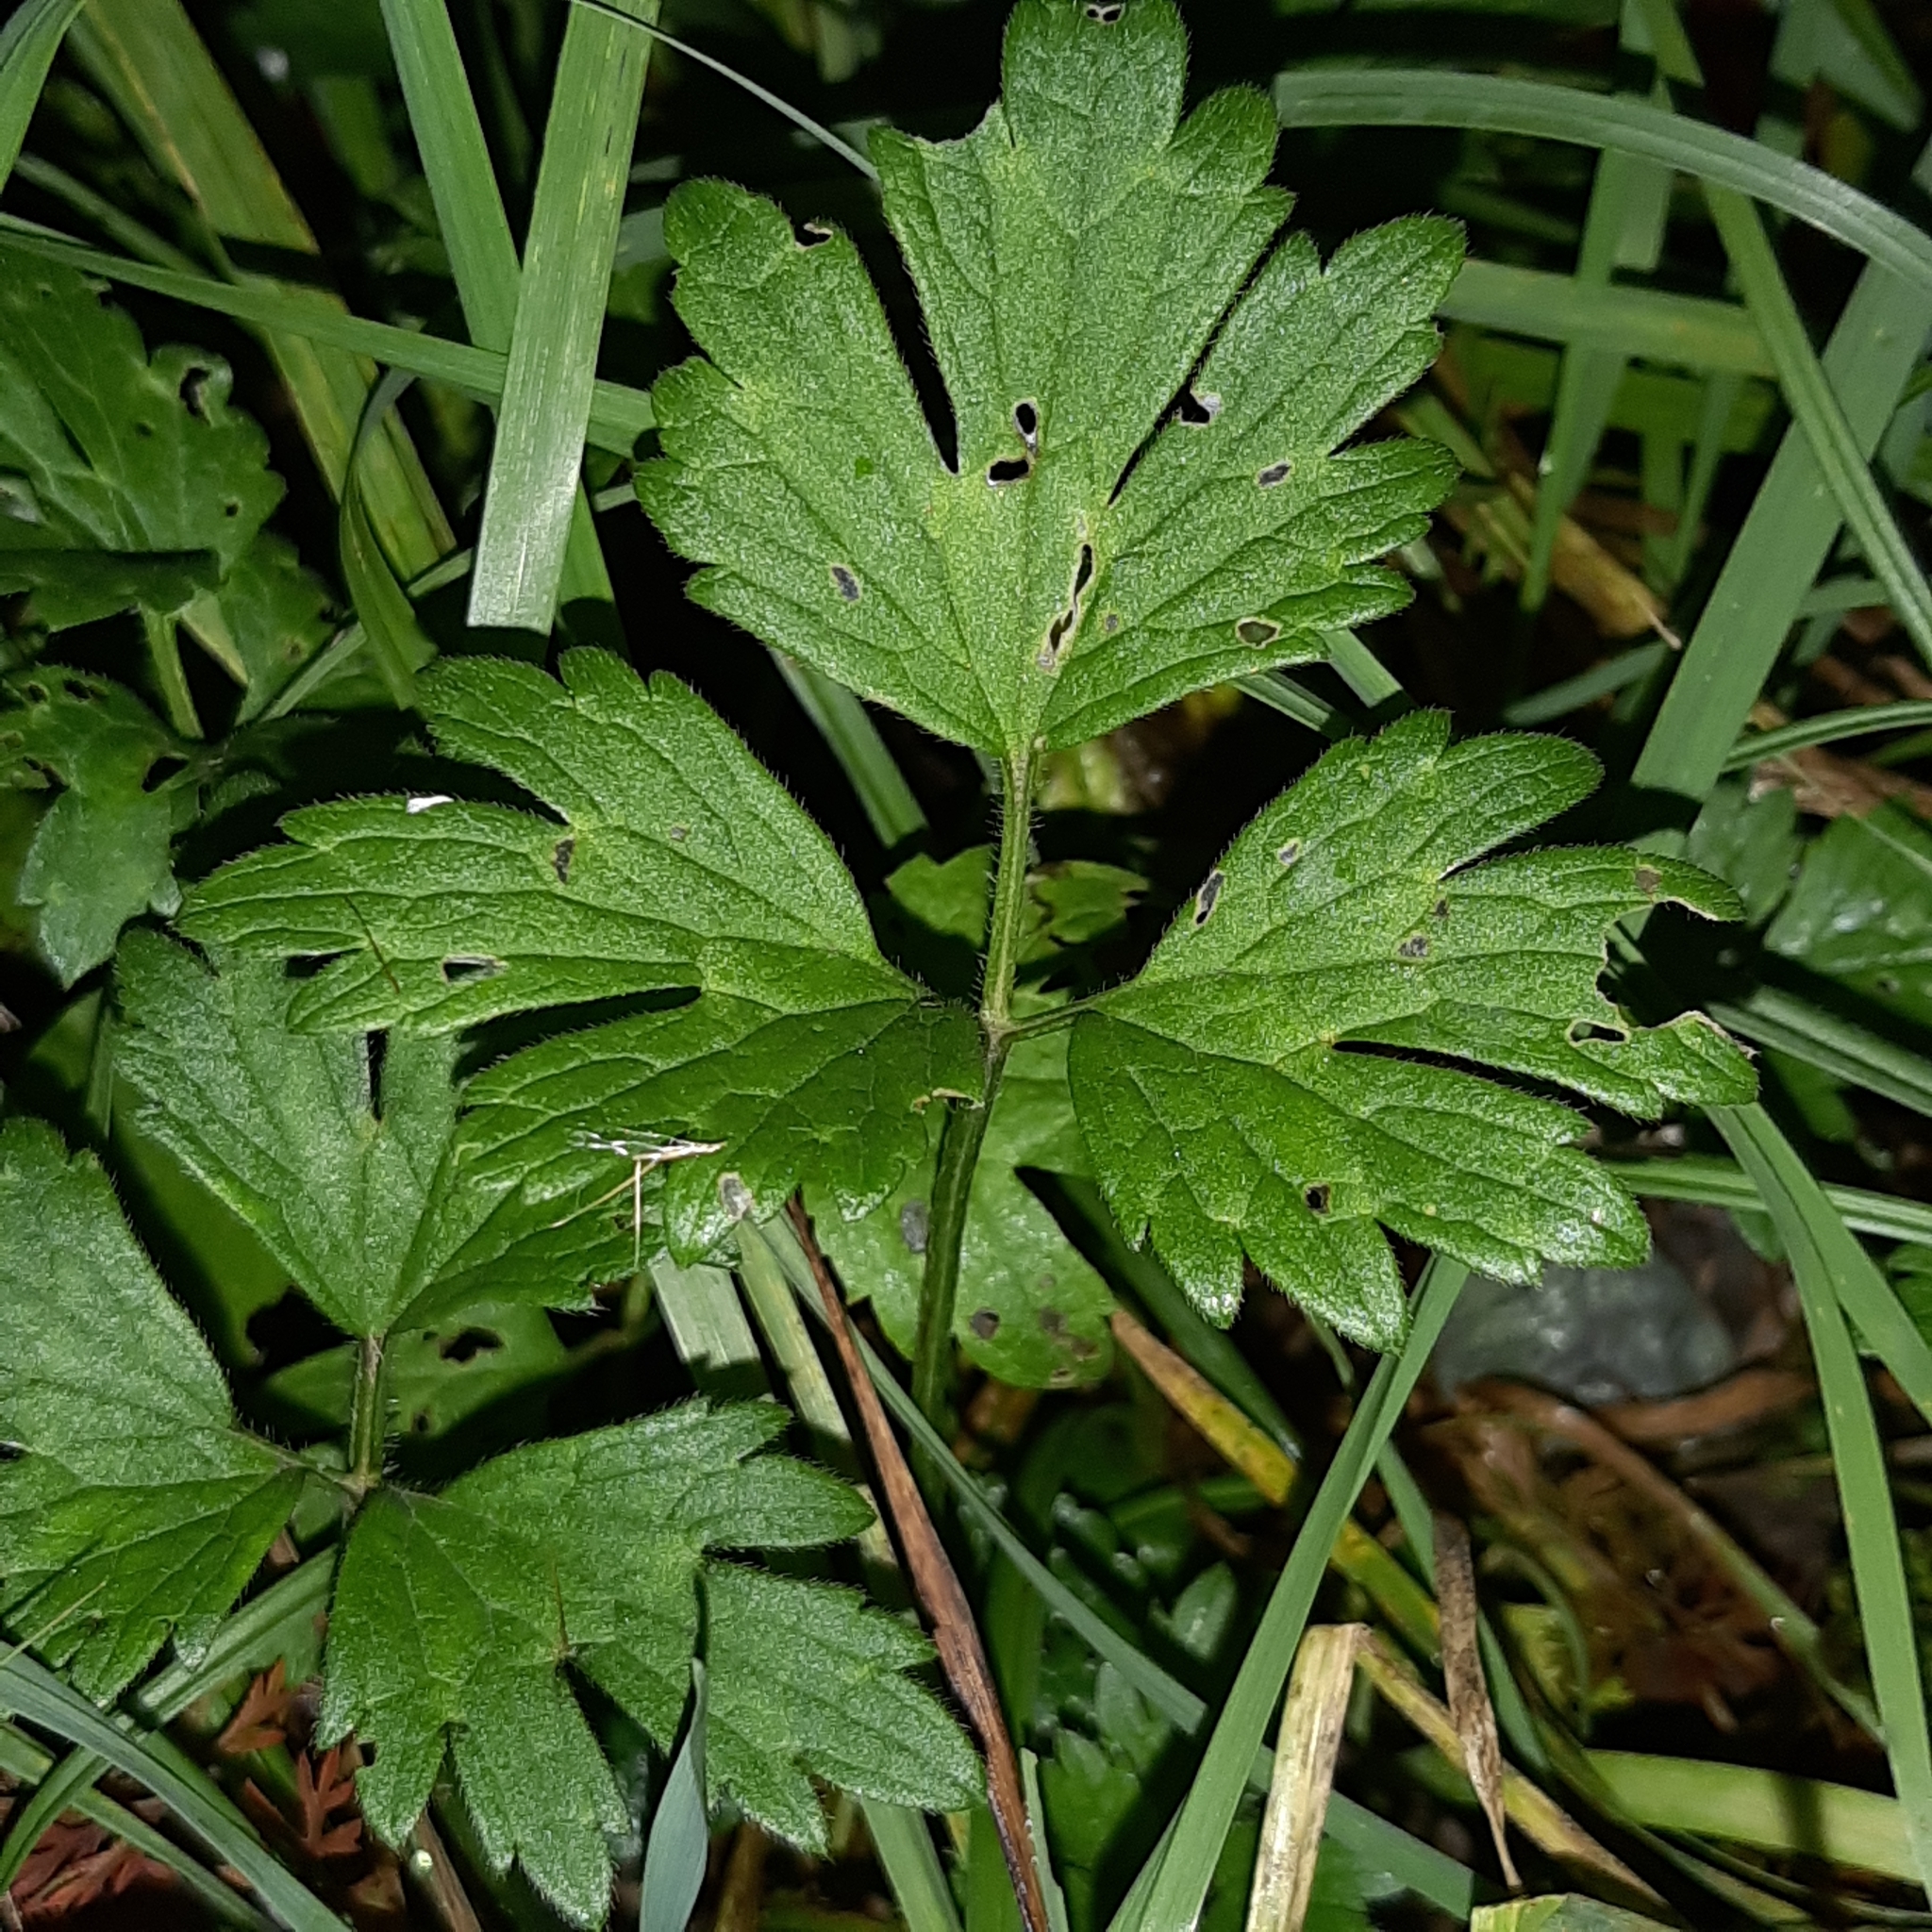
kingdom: Plantae
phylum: Tracheophyta
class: Magnoliopsida
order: Ranunculales
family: Ranunculaceae
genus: Ranunculus
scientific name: Ranunculus repens
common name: Creeping buttercup
